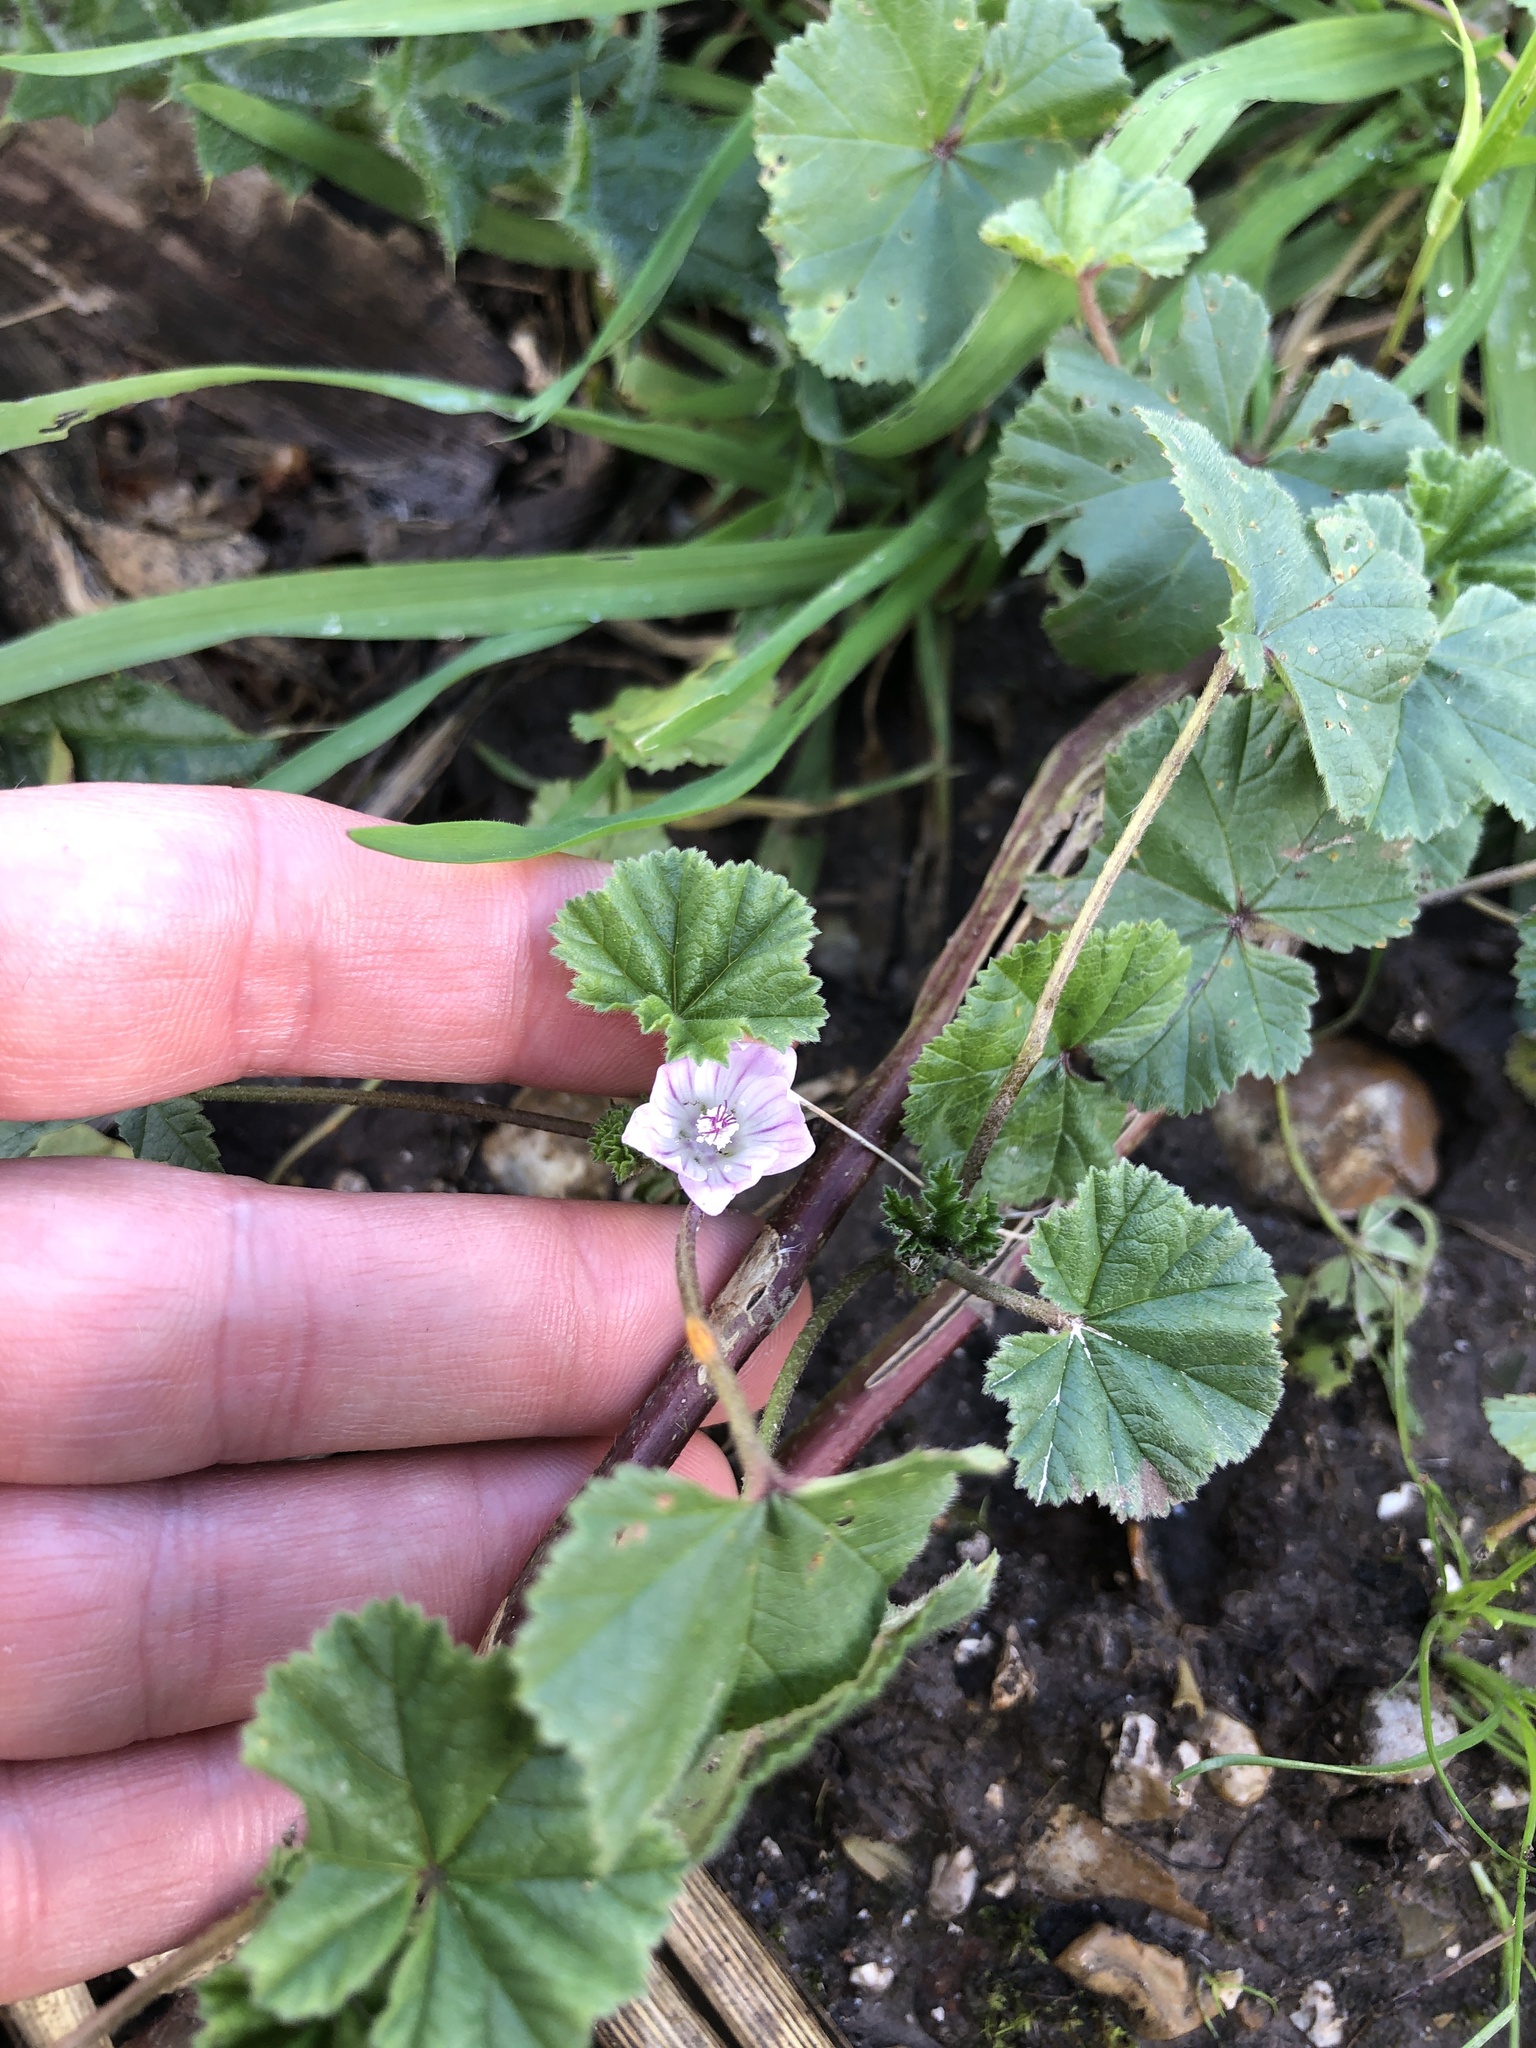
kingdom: Plantae
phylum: Tracheophyta
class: Magnoliopsida
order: Malvales
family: Malvaceae
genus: Malva
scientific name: Malva neglecta
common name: Common mallow
